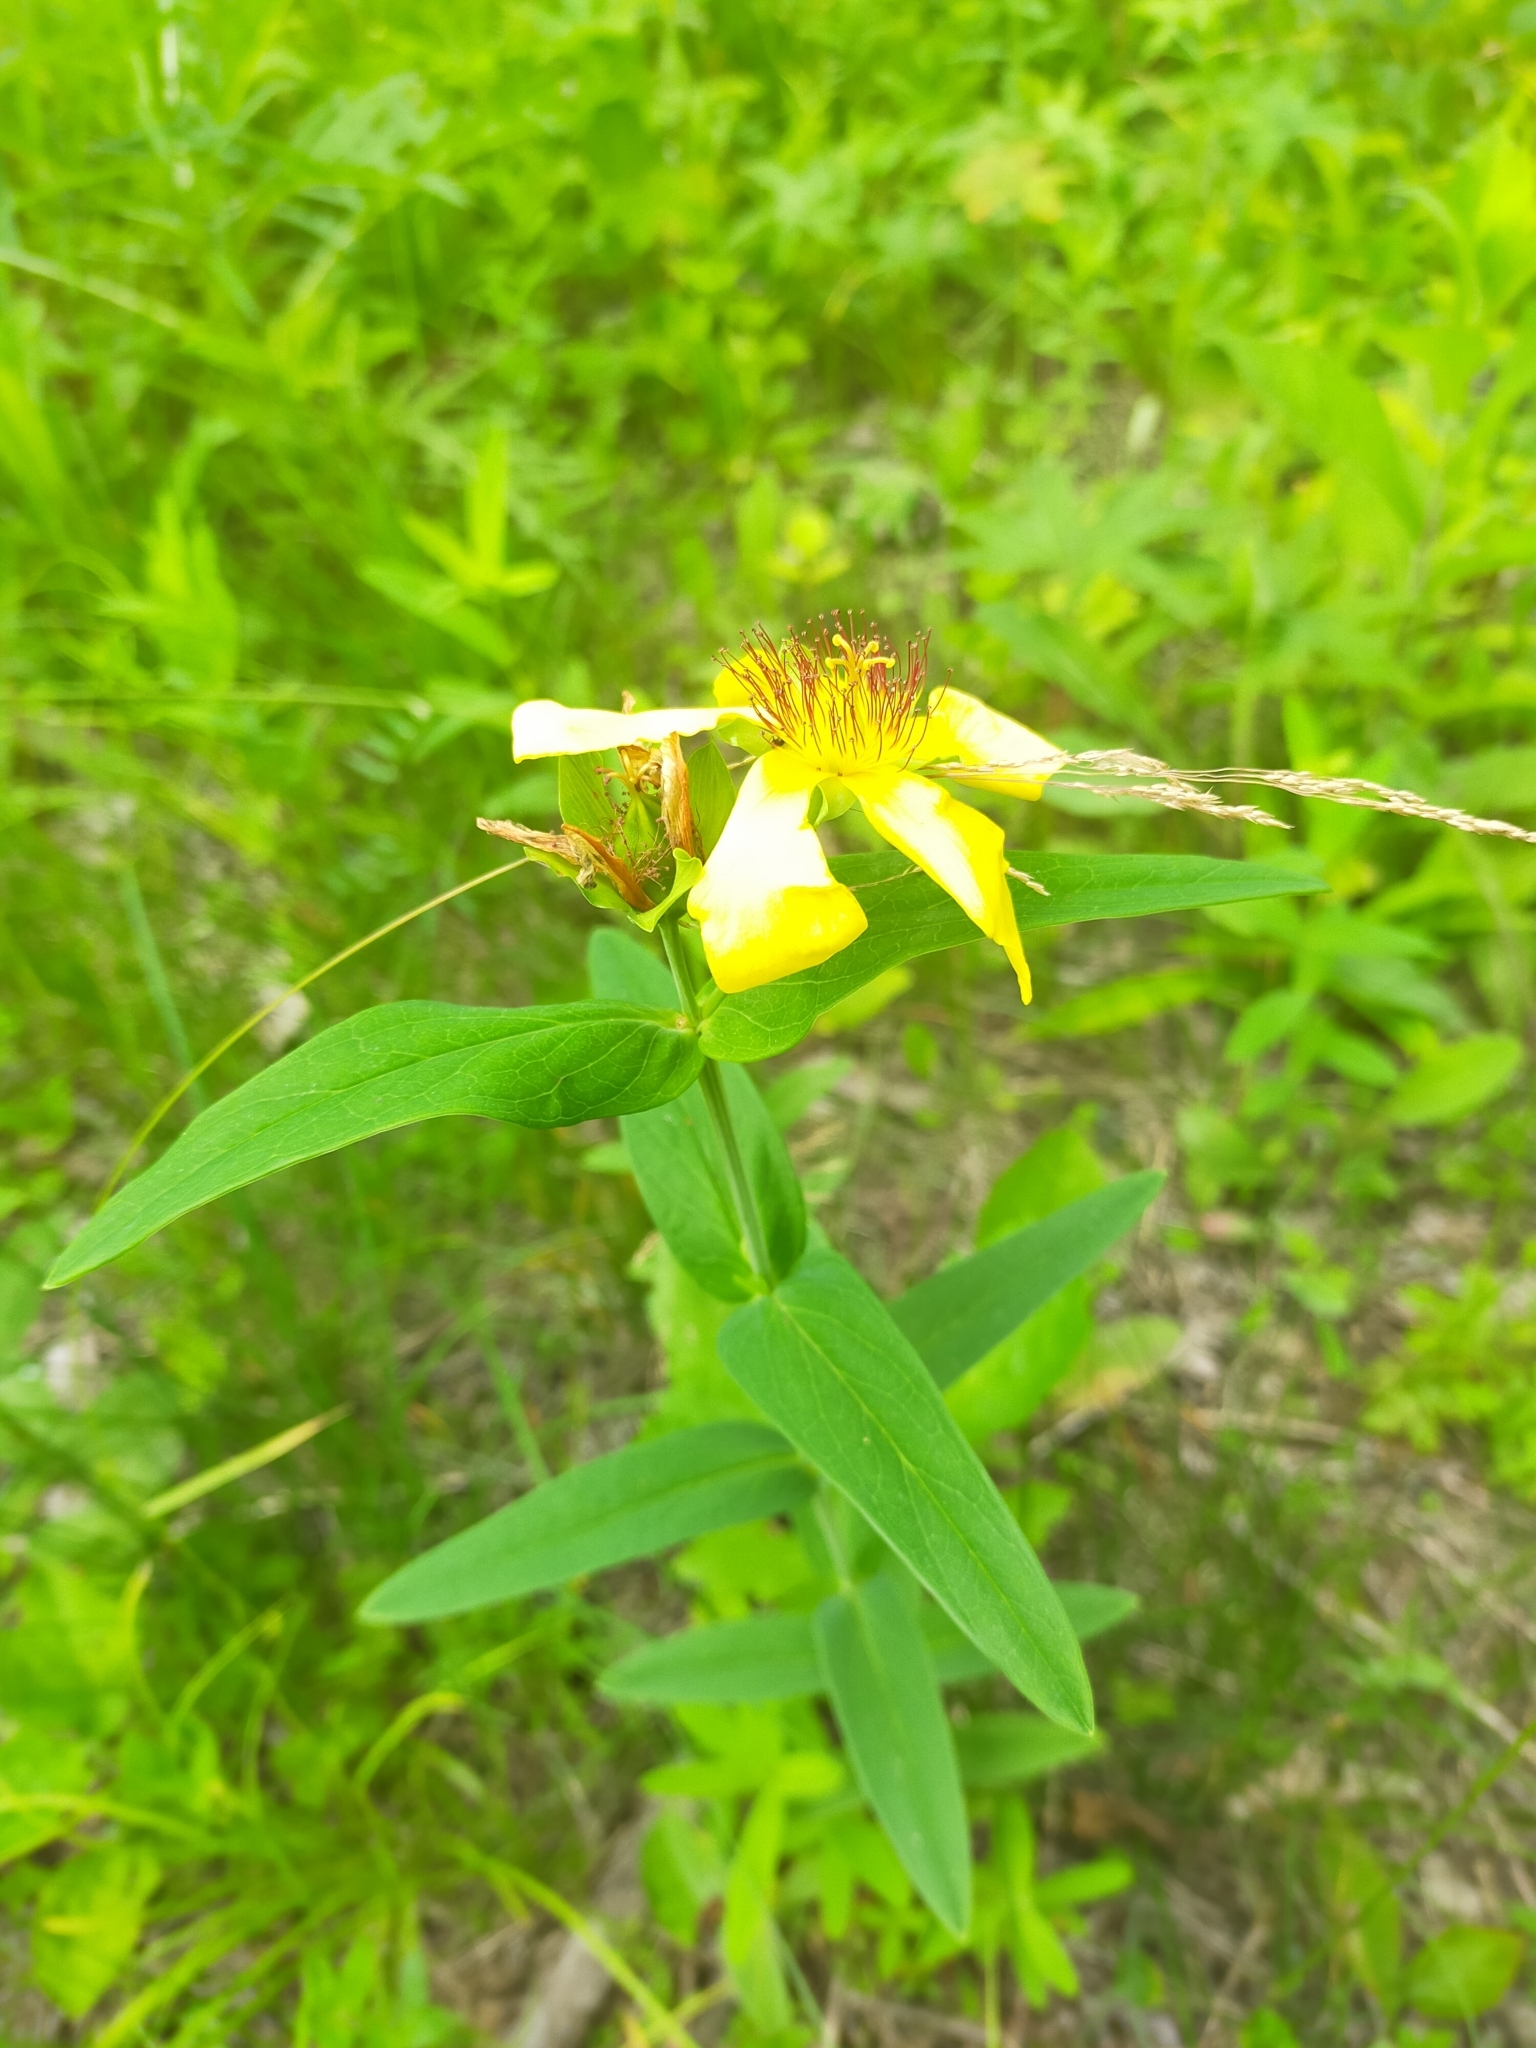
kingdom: Plantae
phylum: Tracheophyta
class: Magnoliopsida
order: Malpighiales
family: Hypericaceae
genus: Hypericum
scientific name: Hypericum ascyron
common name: Giant st. john's-wort
